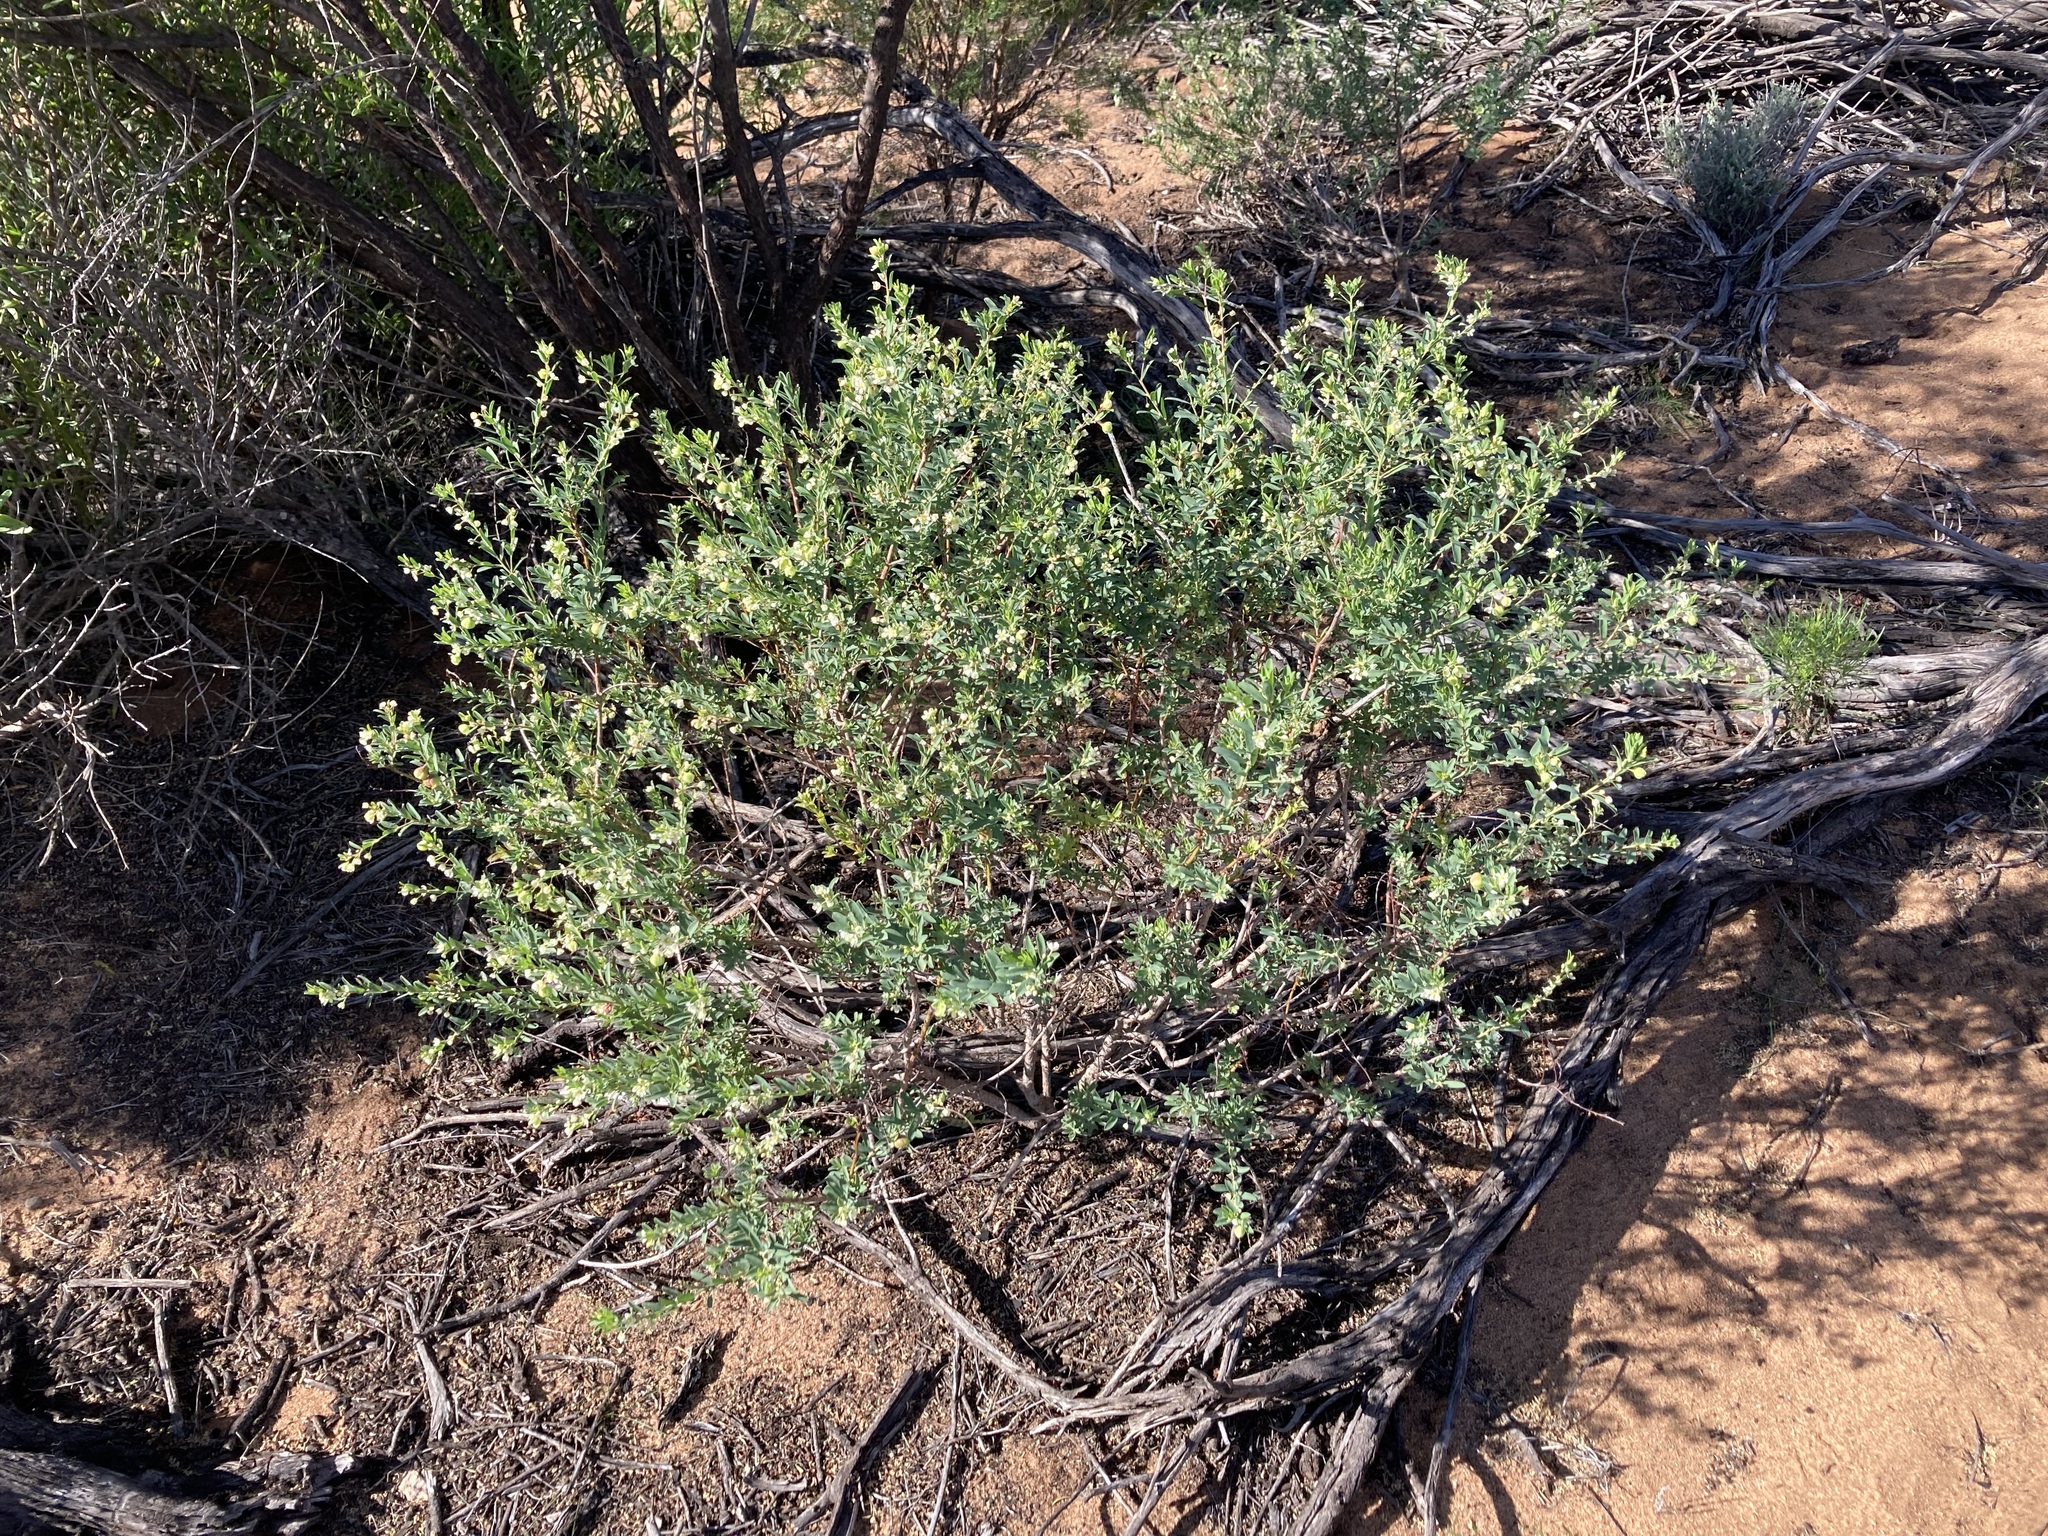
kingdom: Plantae
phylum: Tracheophyta
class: Magnoliopsida
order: Malpighiales
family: Phyllanthaceae
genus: Phyllanthus
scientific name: Phyllanthus calycinus
